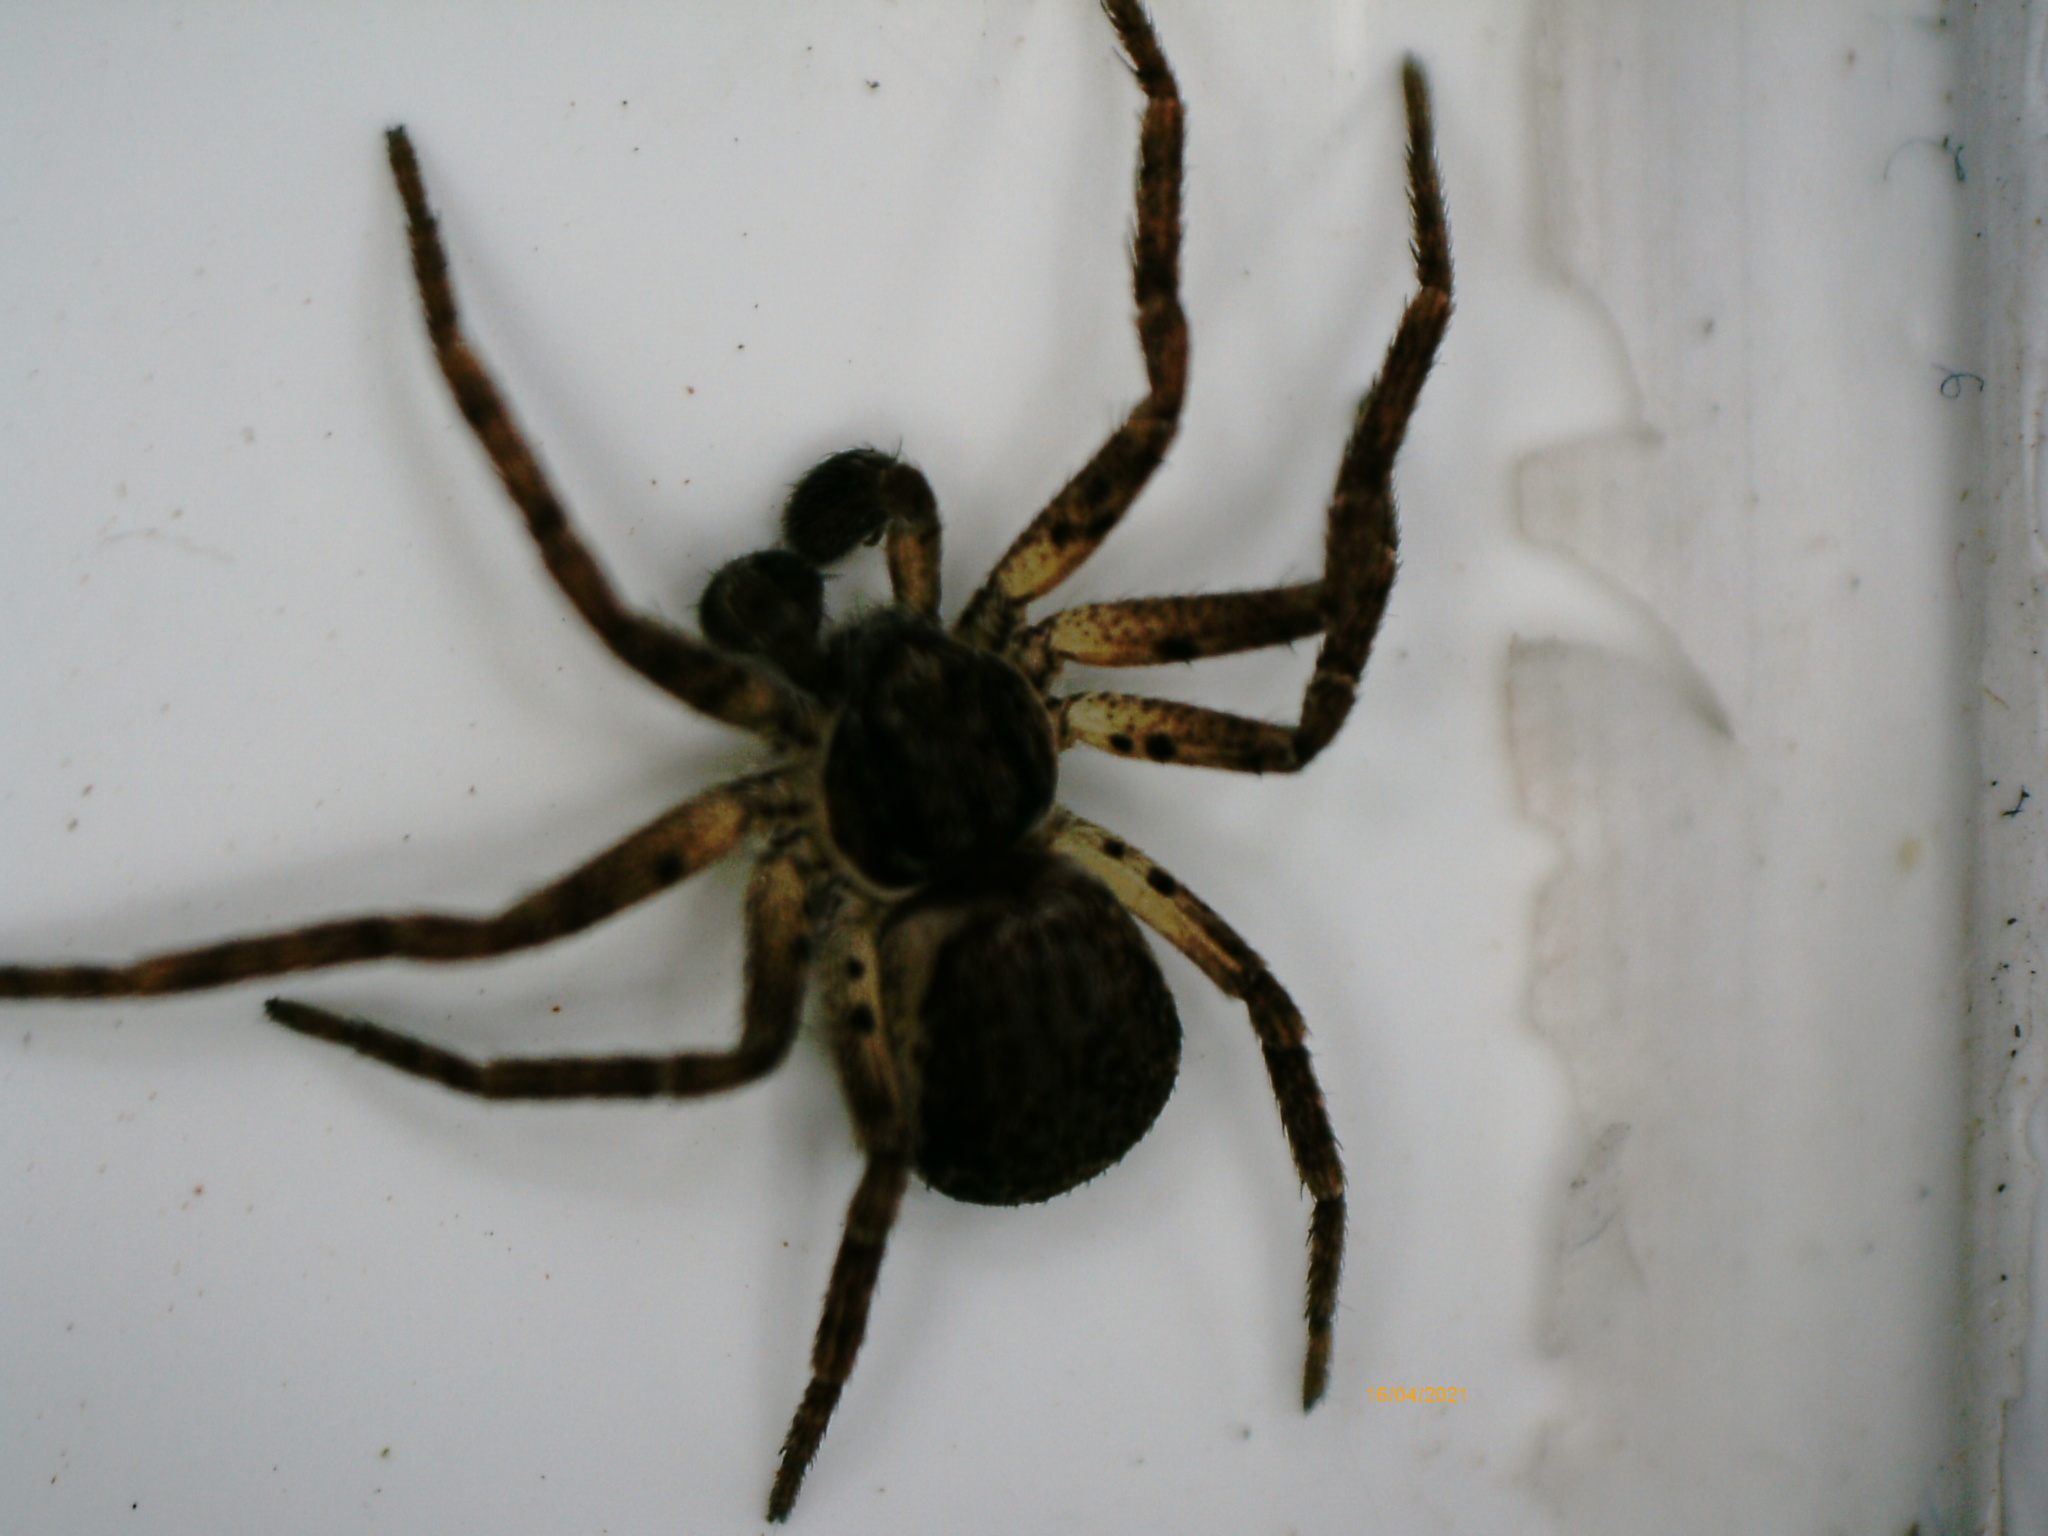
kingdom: Animalia
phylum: Arthropoda
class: Arachnida
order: Araneae
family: Philodromidae
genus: Philodromus
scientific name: Philodromus dispar
